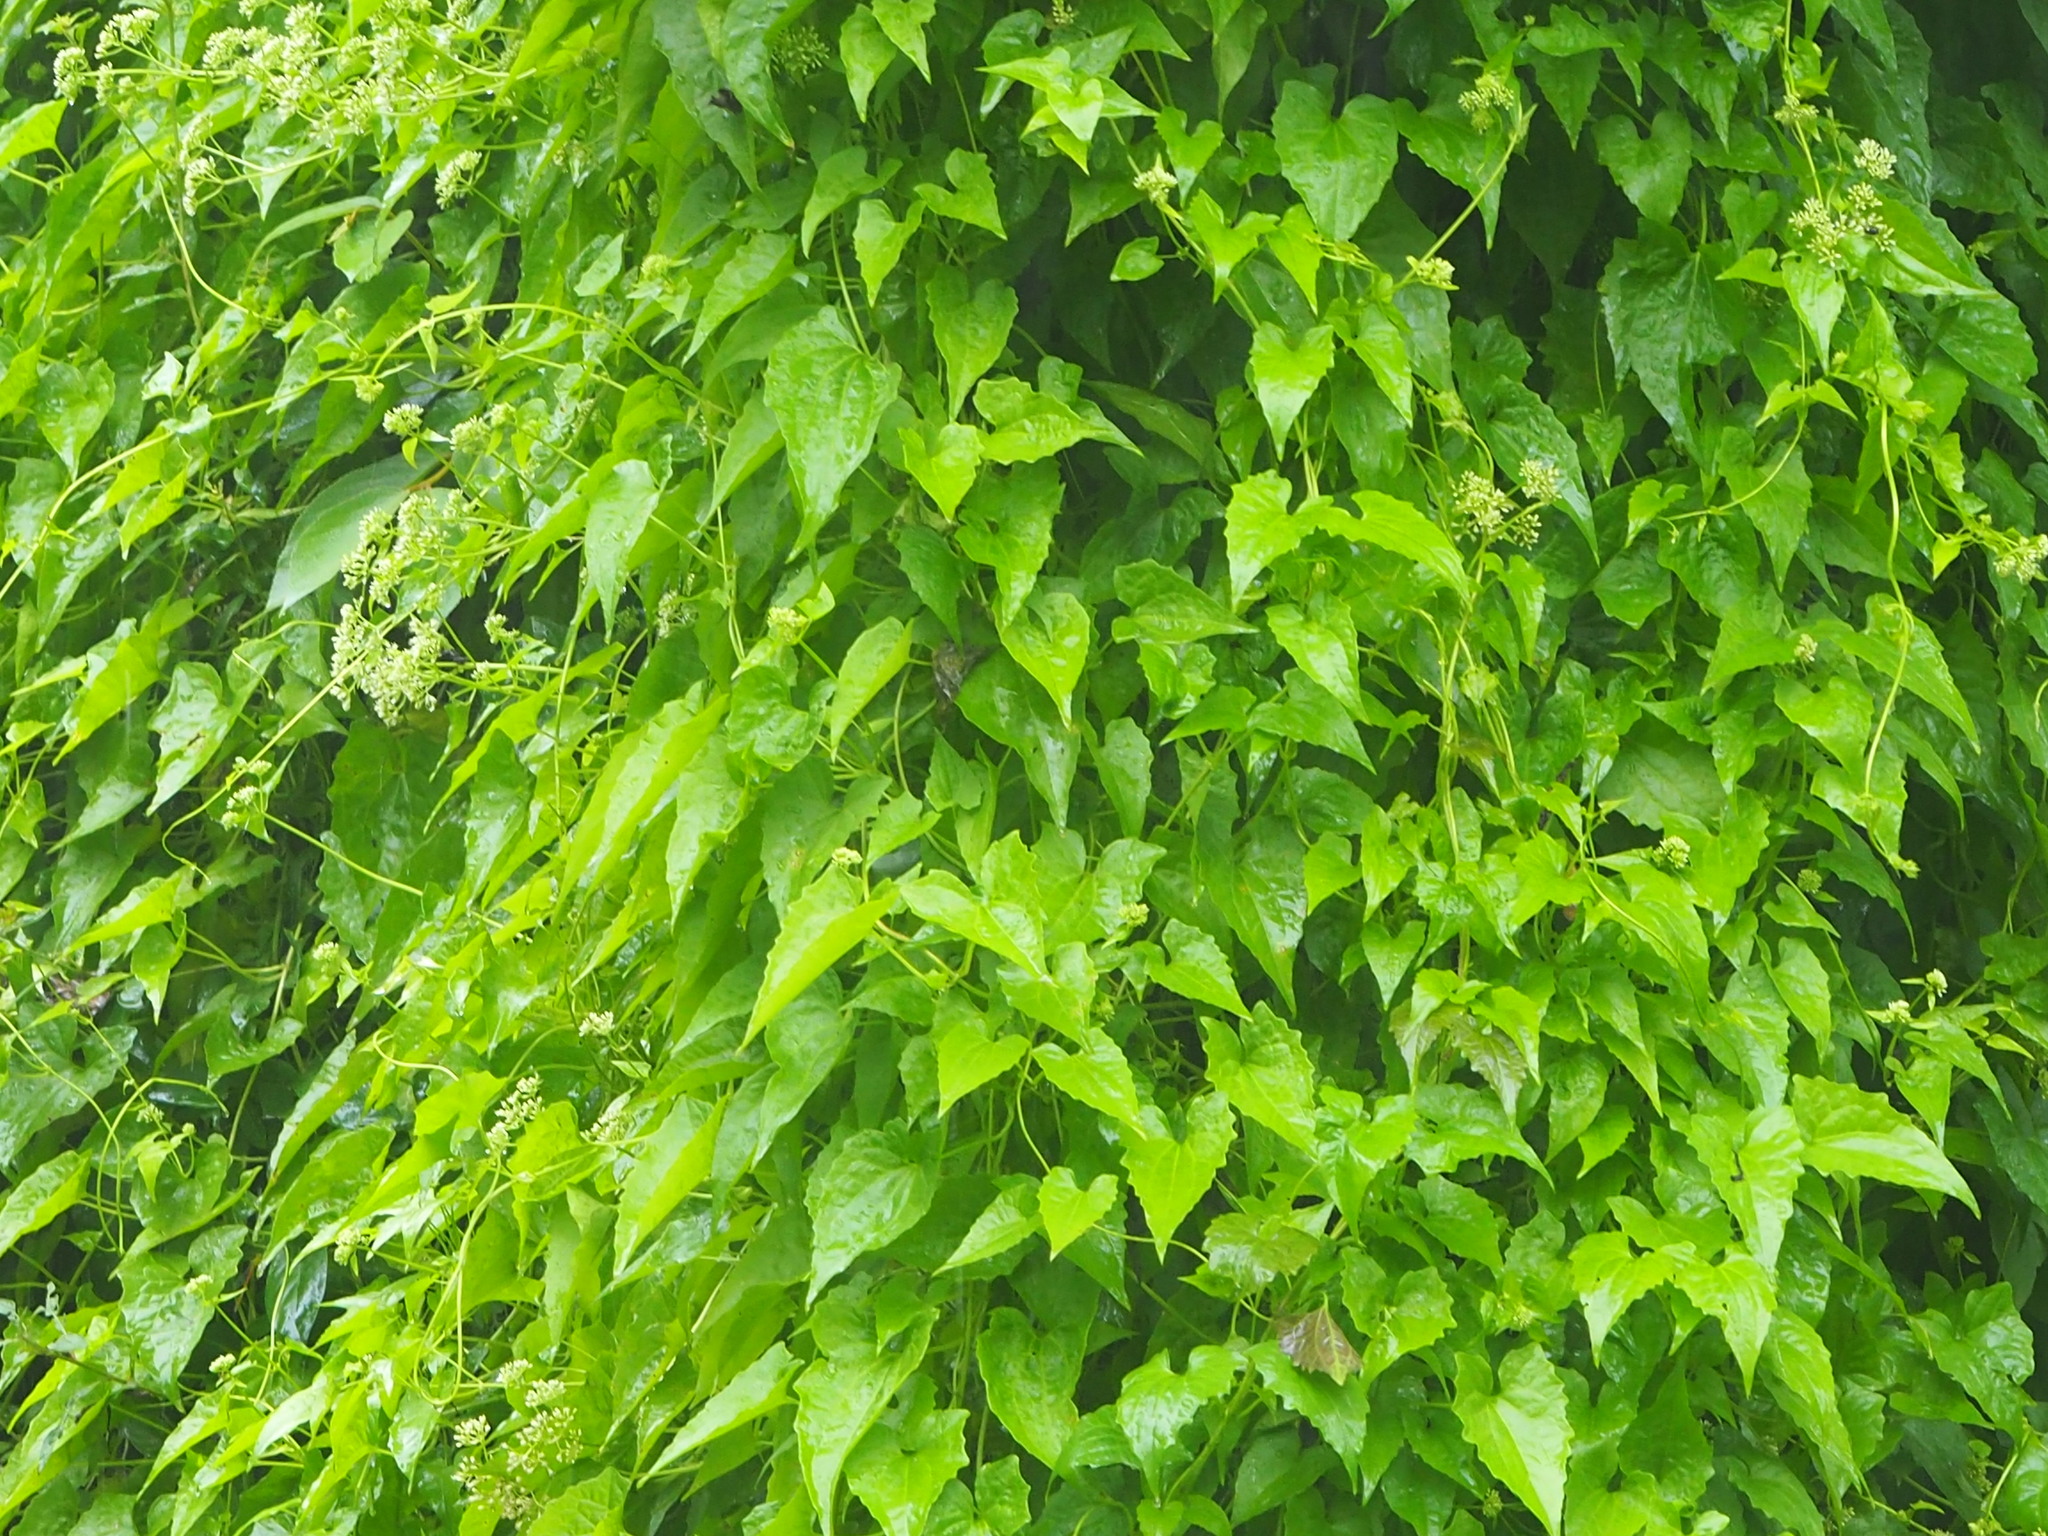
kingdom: Plantae
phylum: Tracheophyta
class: Magnoliopsida
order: Asterales
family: Asteraceae
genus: Mikania
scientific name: Mikania micrantha
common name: Mile-a-minute
